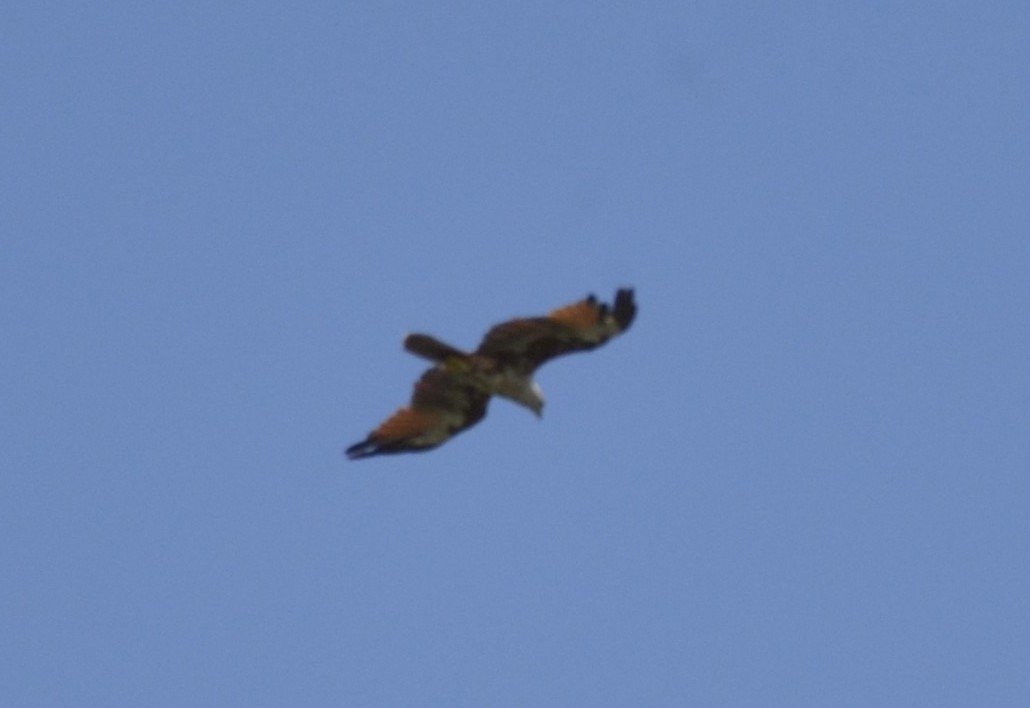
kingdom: Animalia
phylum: Chordata
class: Aves
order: Accipitriformes
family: Accipitridae
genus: Haliastur
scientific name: Haliastur indus
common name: Brahminy kite
